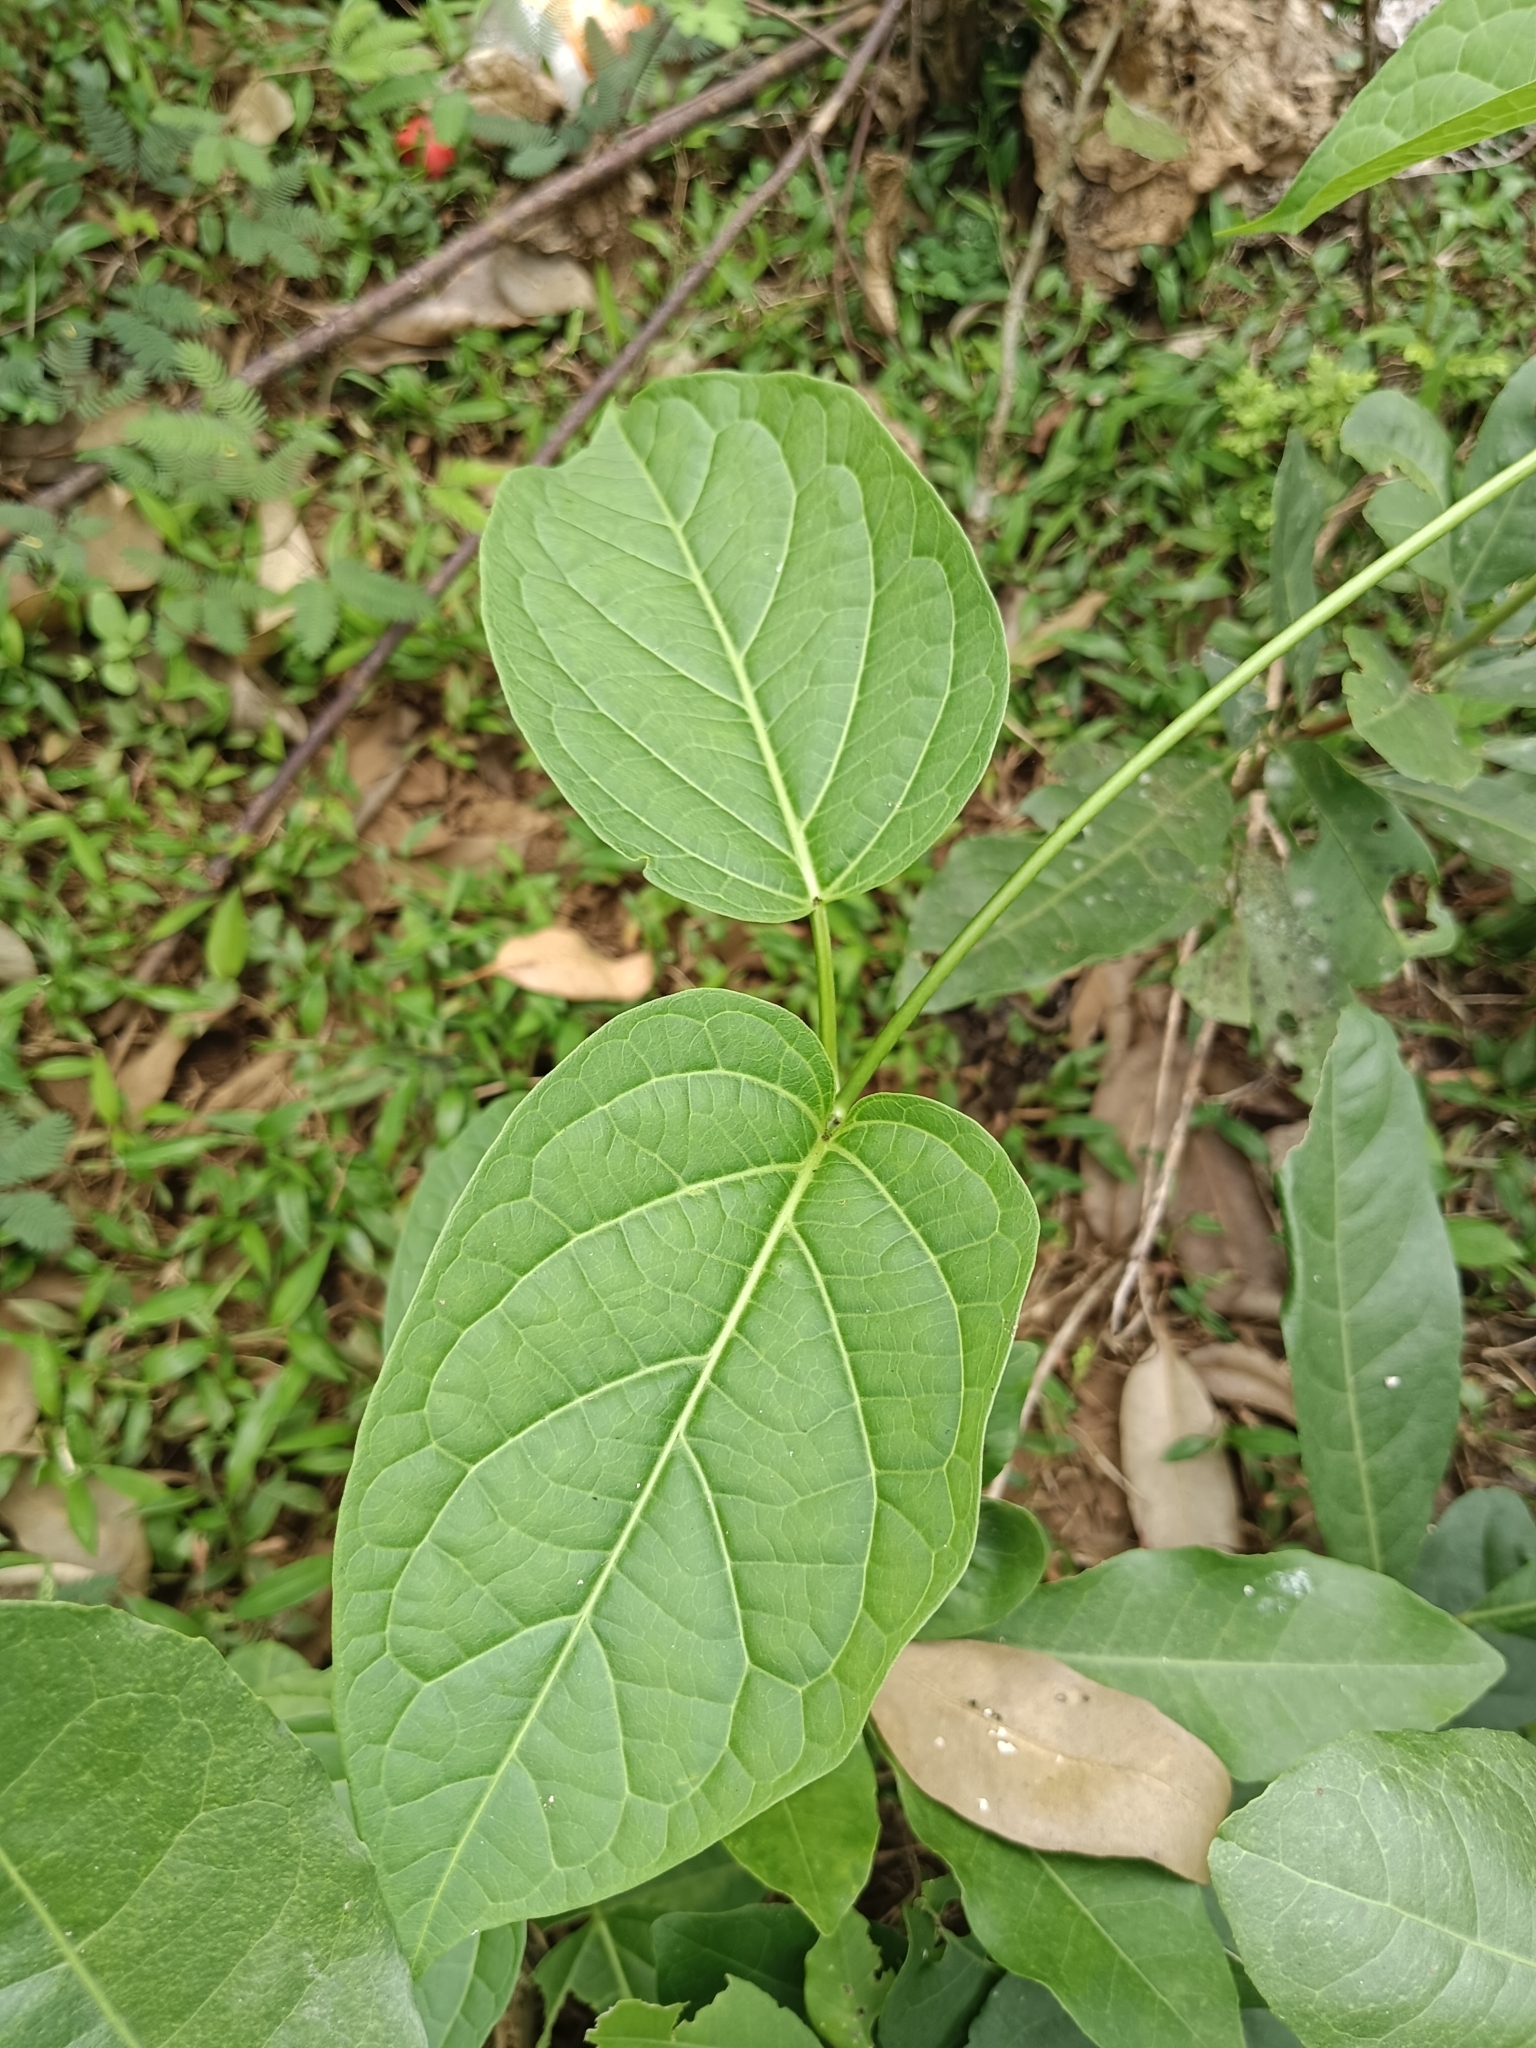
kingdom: Plantae
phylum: Tracheophyta
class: Magnoliopsida
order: Gentianales
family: Apocynaceae
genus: Stephanotis
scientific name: Stephanotis volubilis
